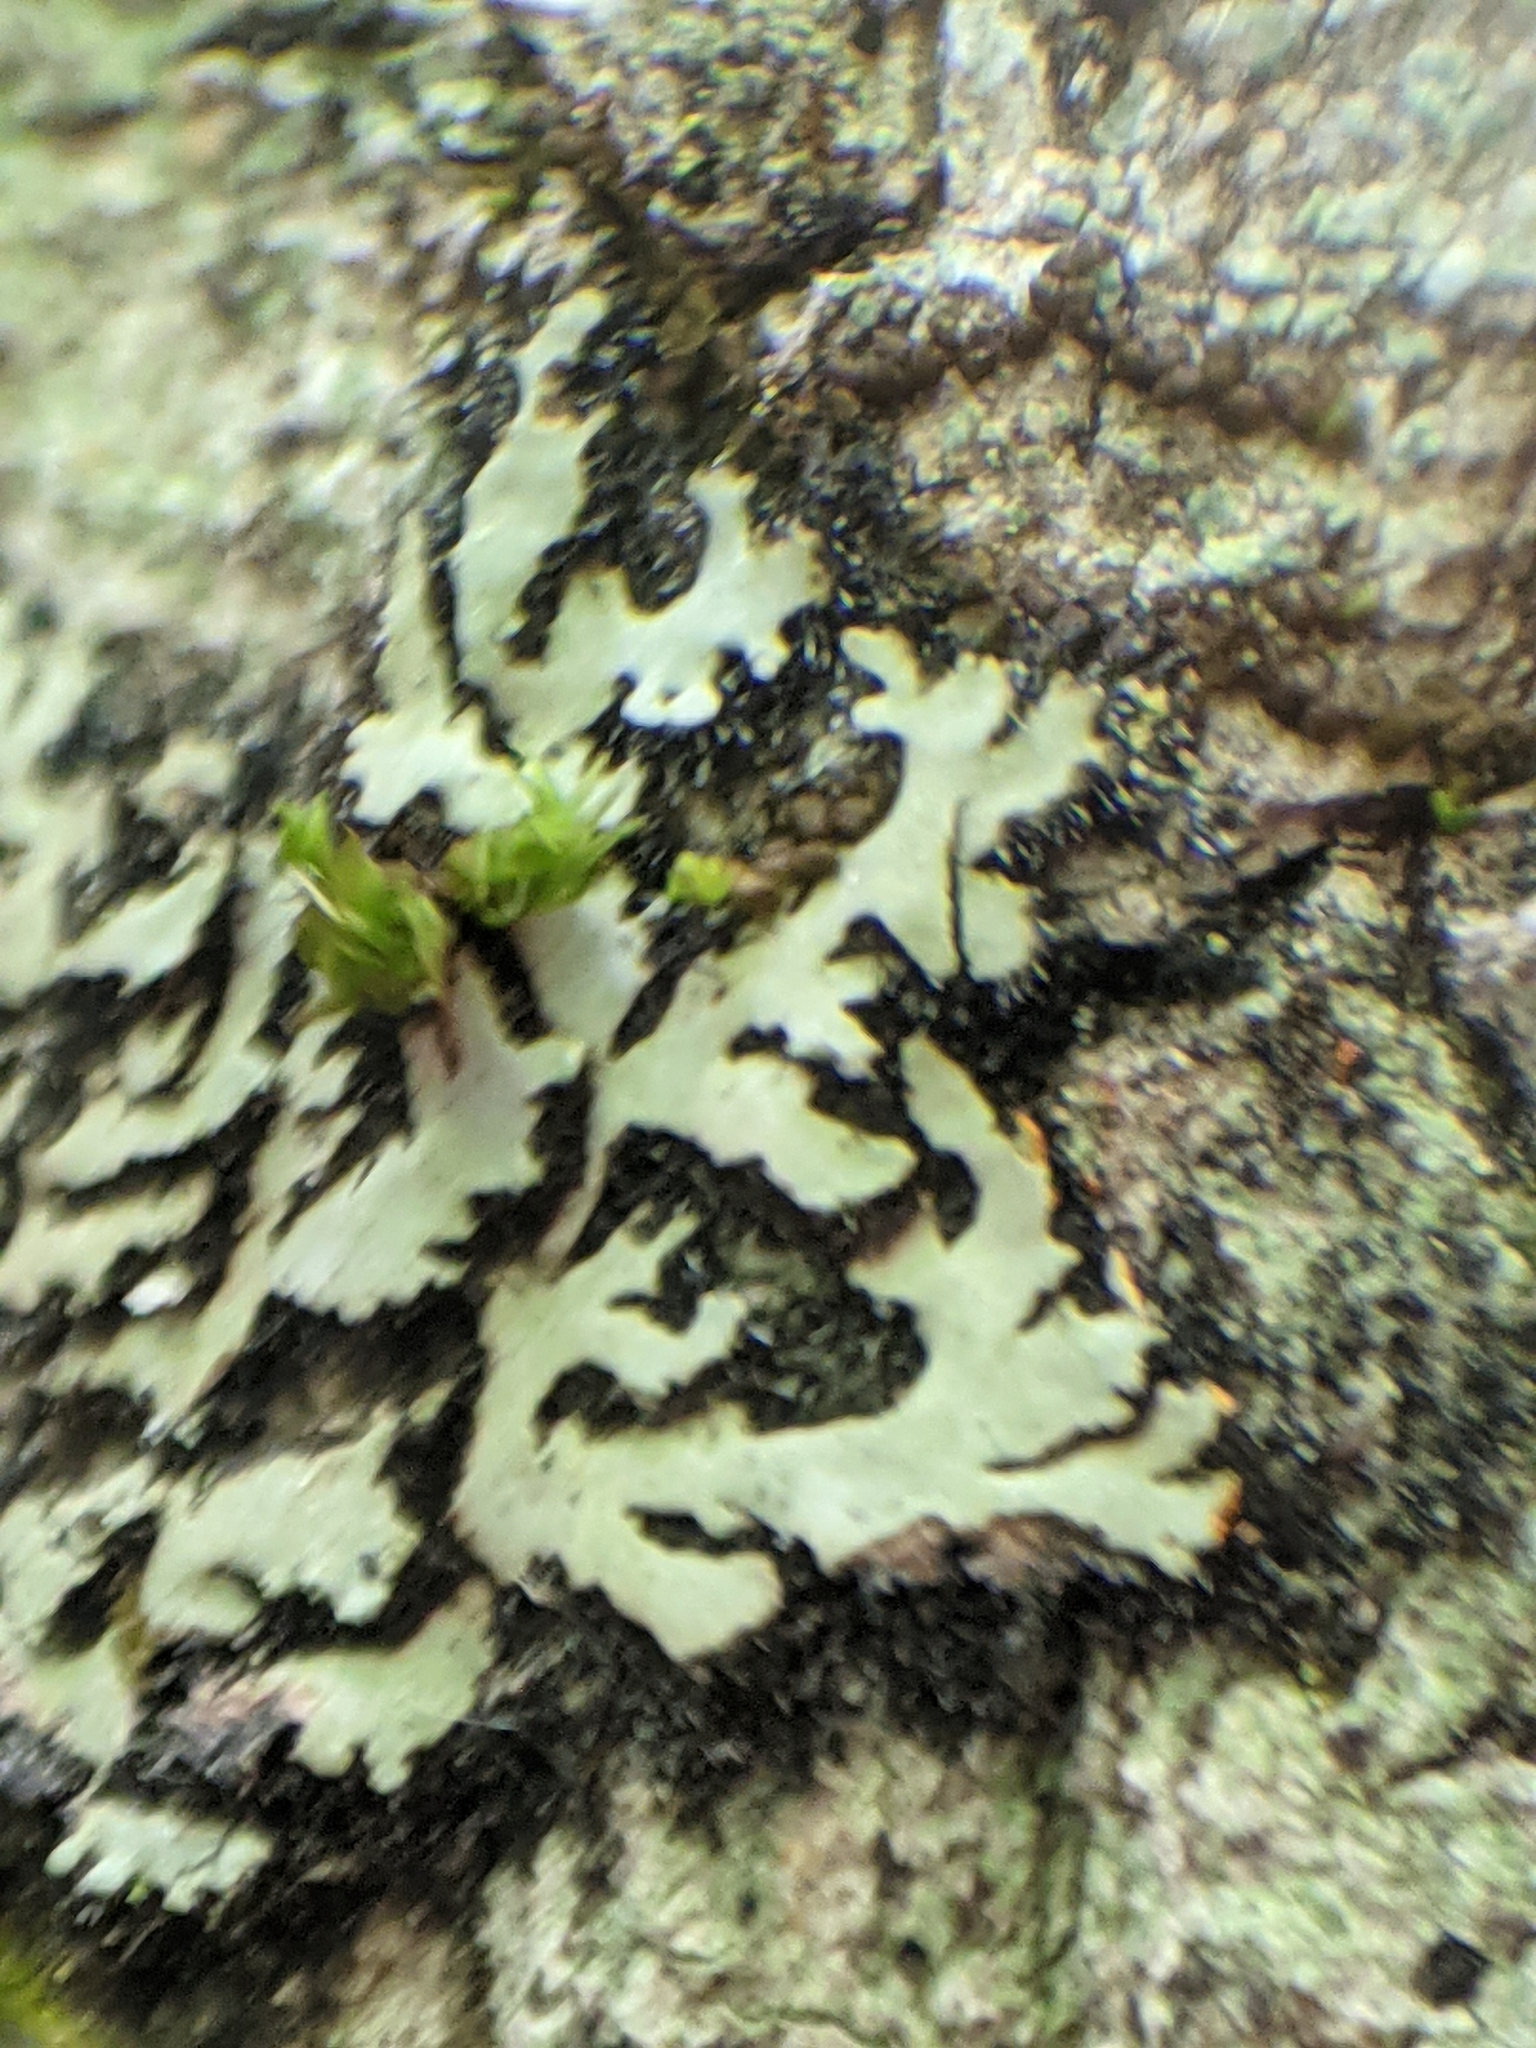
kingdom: Fungi
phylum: Ascomycota
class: Lecanoromycetes
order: Caliciales
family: Physciaceae
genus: Phaeophyscia
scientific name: Phaeophyscia rubropulchra
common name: Orange-cored shadow lichen
